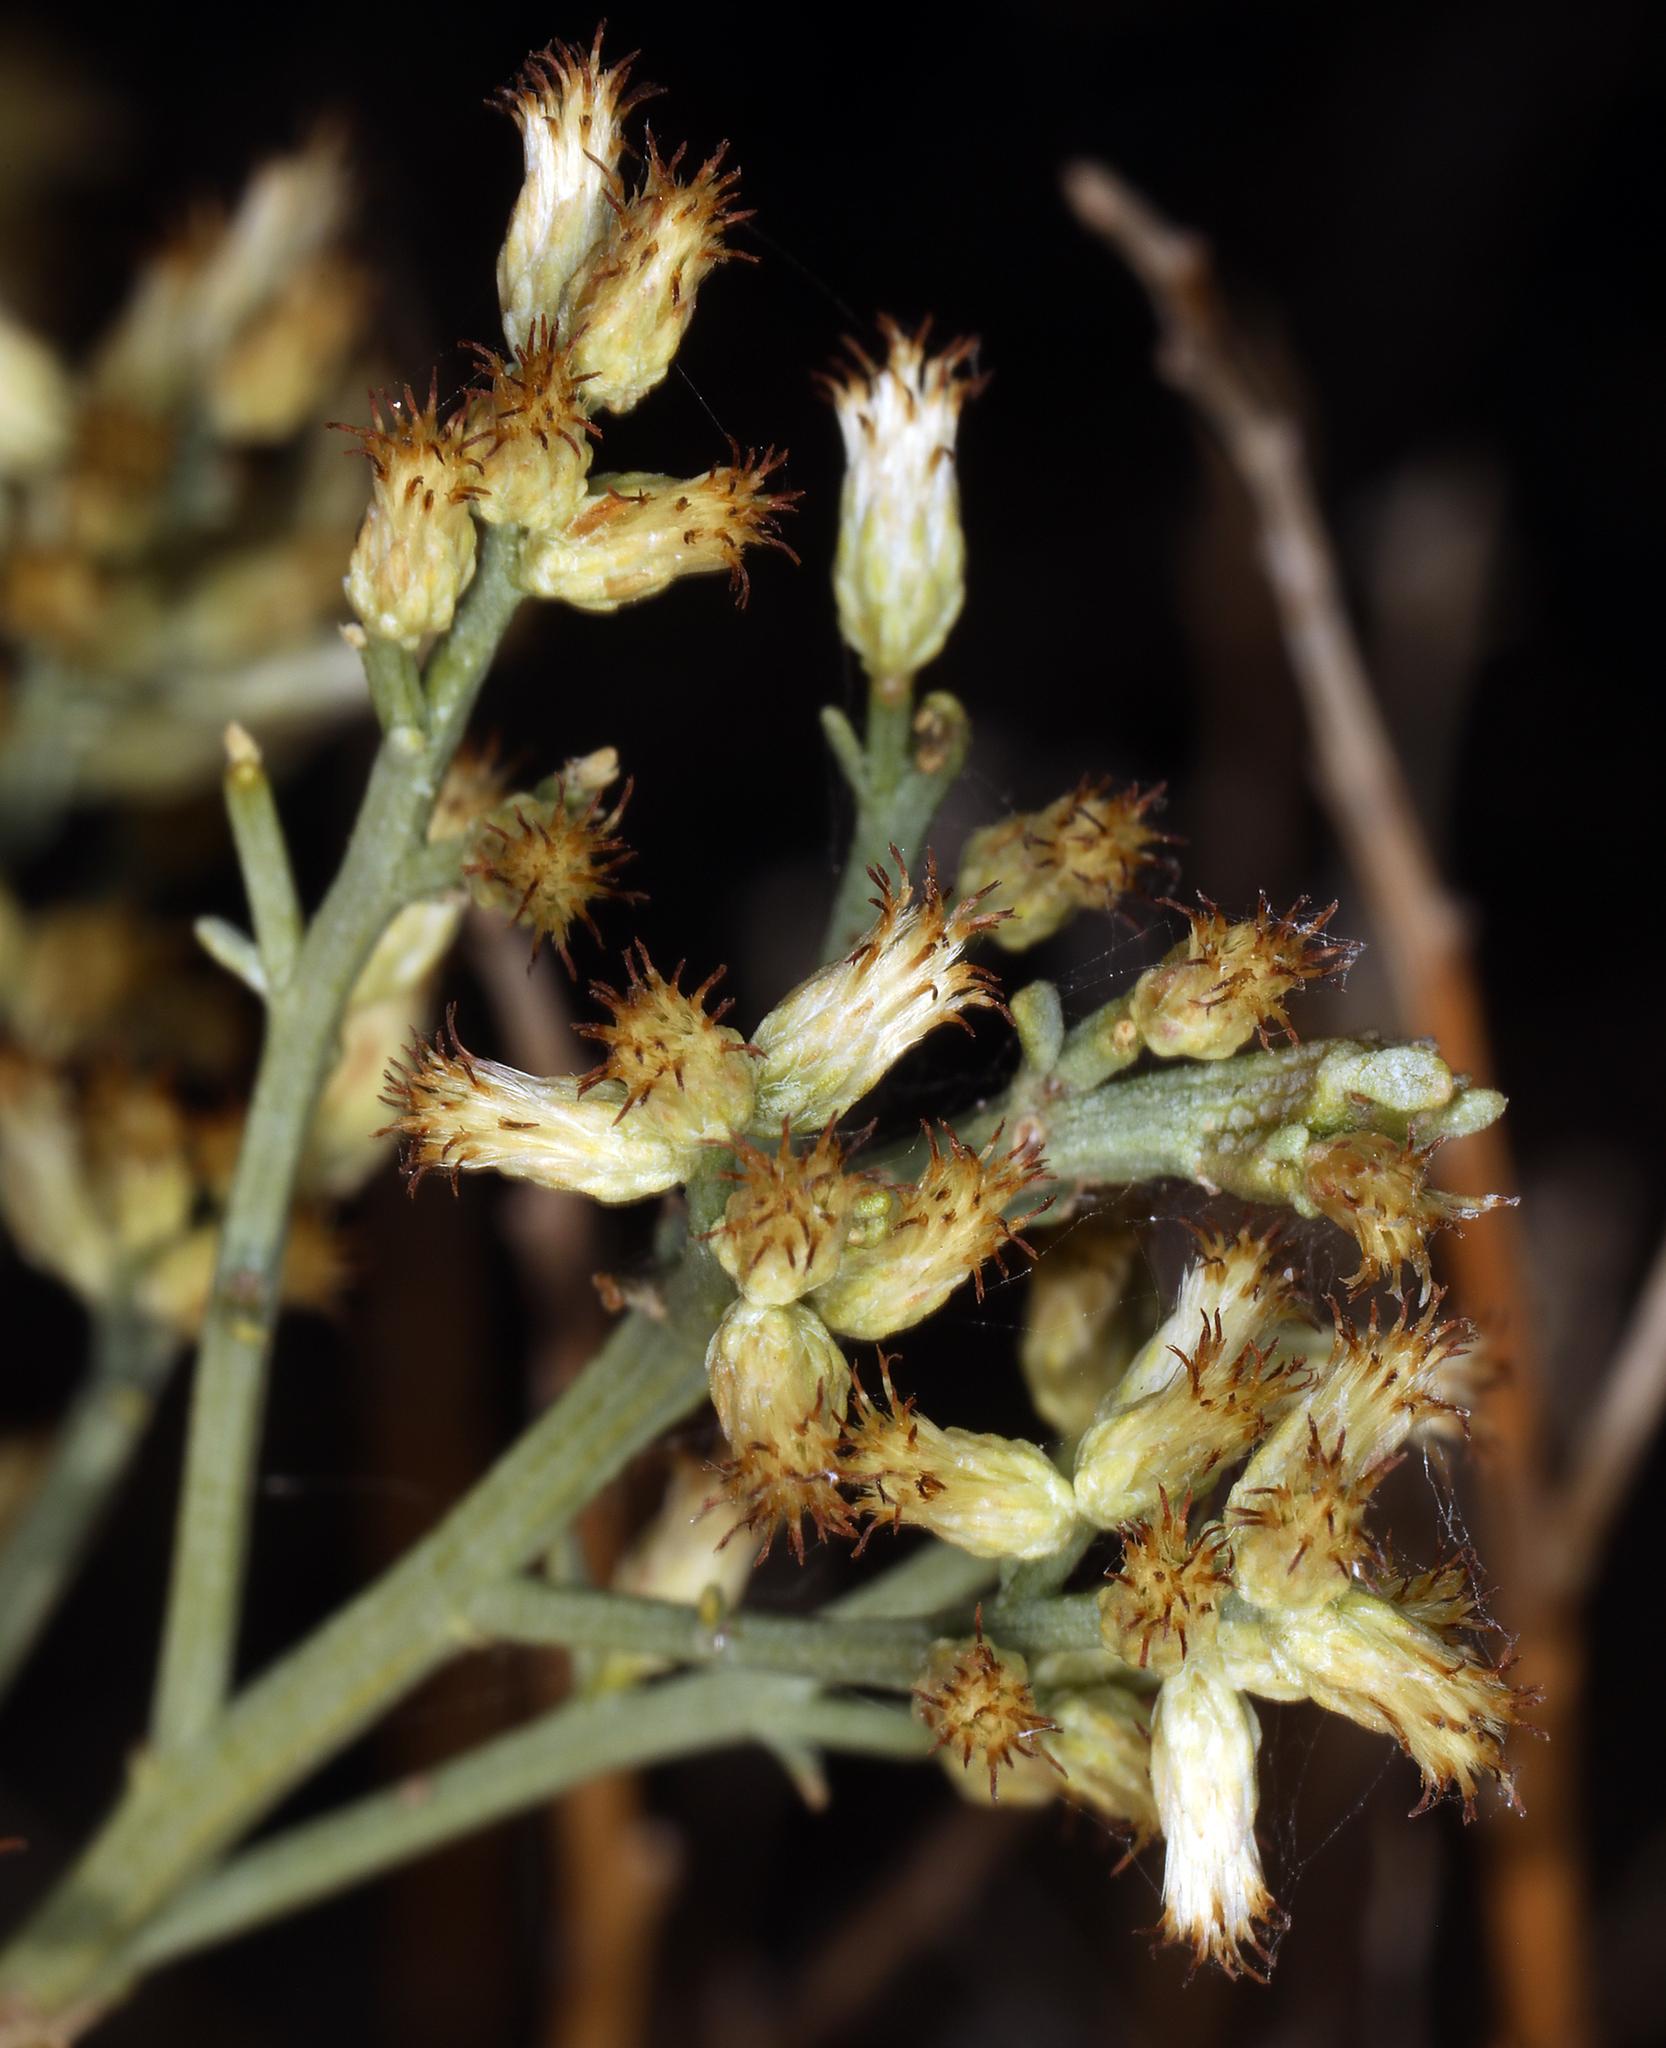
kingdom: Plantae
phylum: Tracheophyta
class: Magnoliopsida
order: Asterales
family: Asteraceae
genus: Baccharis
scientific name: Baccharis sergiloides
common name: Desert baccharis
